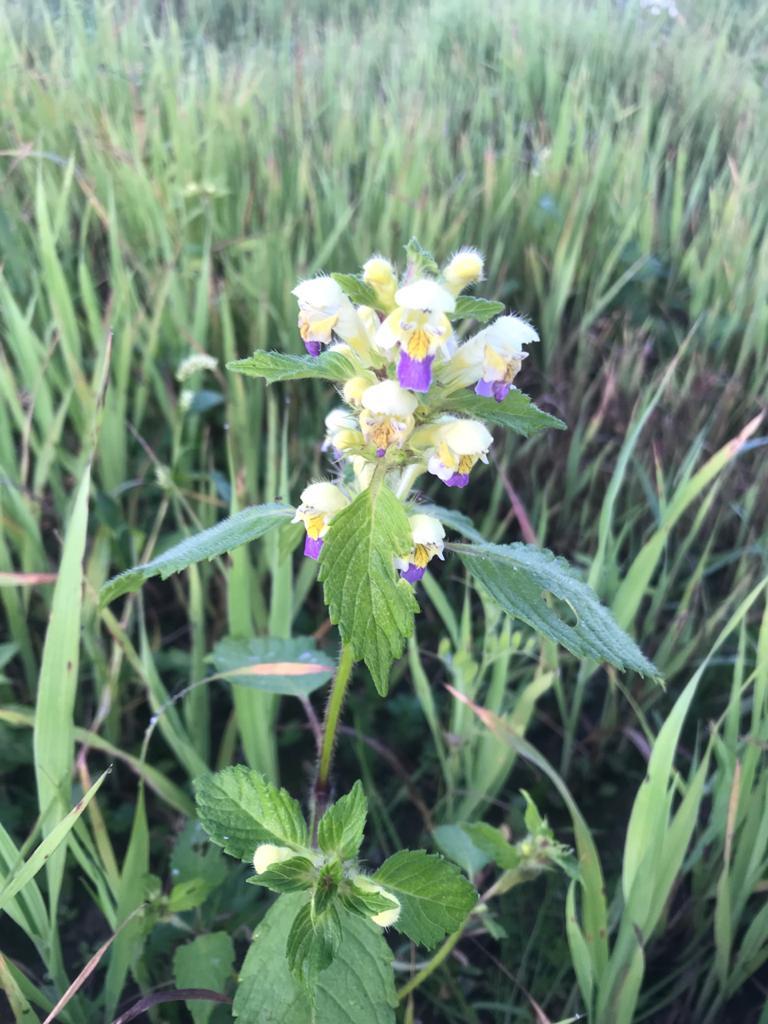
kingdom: Plantae
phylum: Tracheophyta
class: Magnoliopsida
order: Lamiales
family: Lamiaceae
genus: Galeopsis
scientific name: Galeopsis speciosa
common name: Large-flowered hemp-nettle
